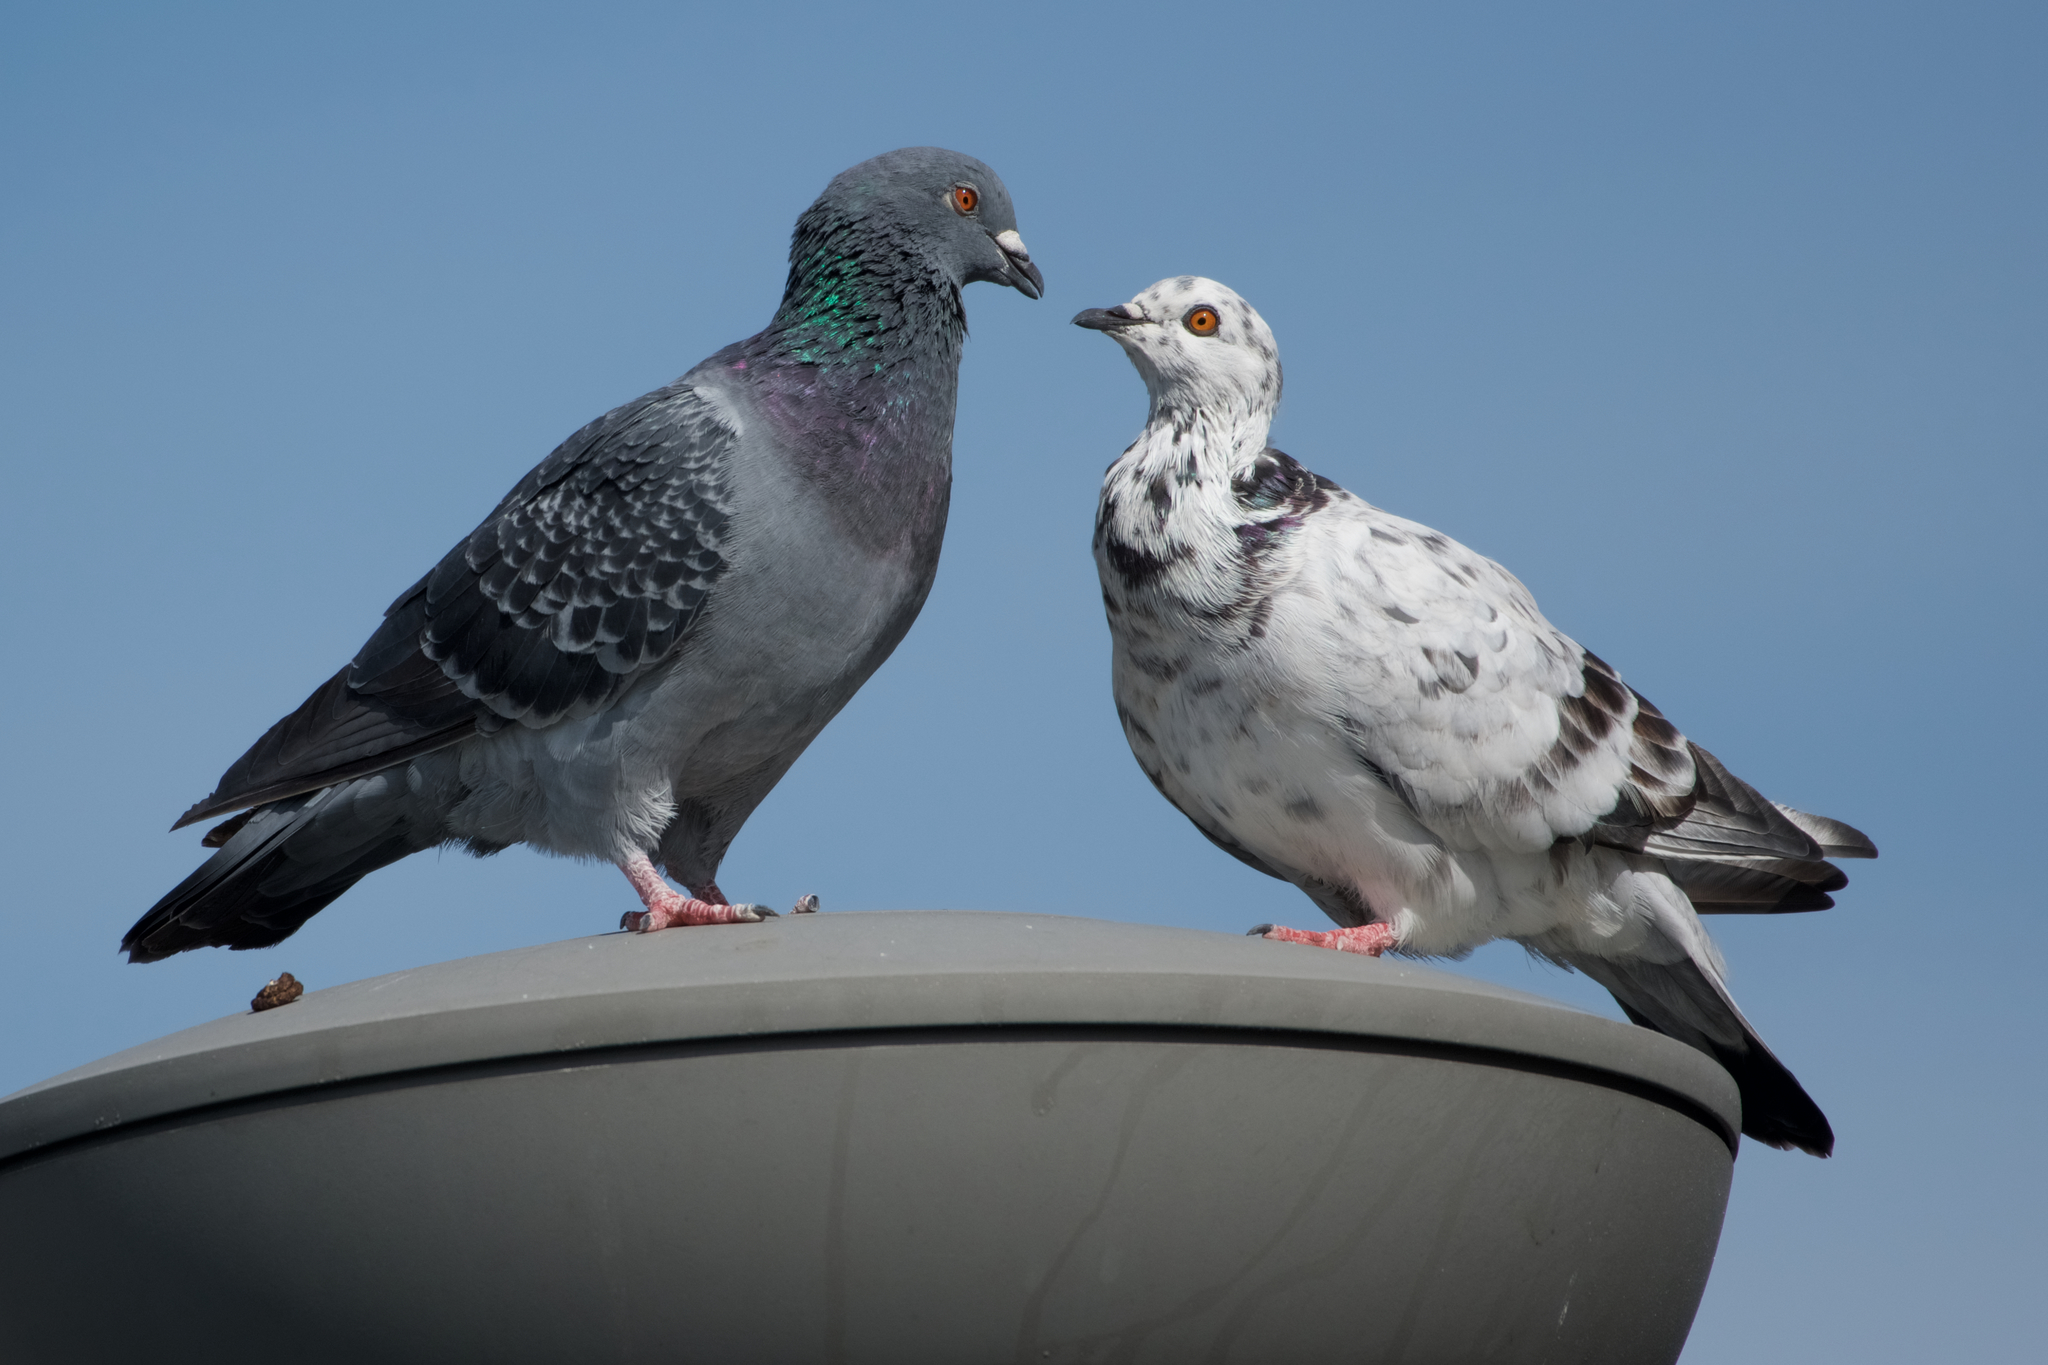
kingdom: Animalia
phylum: Chordata
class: Aves
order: Columbiformes
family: Columbidae
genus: Columba
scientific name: Columba livia
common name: Rock pigeon
